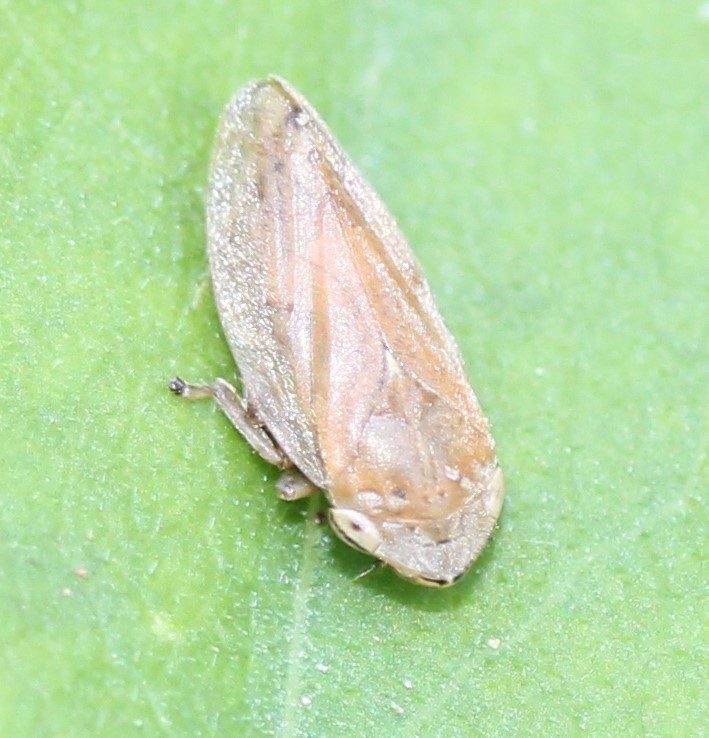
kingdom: Animalia
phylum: Arthropoda
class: Insecta
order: Hemiptera
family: Aphrophoridae
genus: Philaenus
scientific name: Philaenus spumarius
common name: Meadow spittlebug
